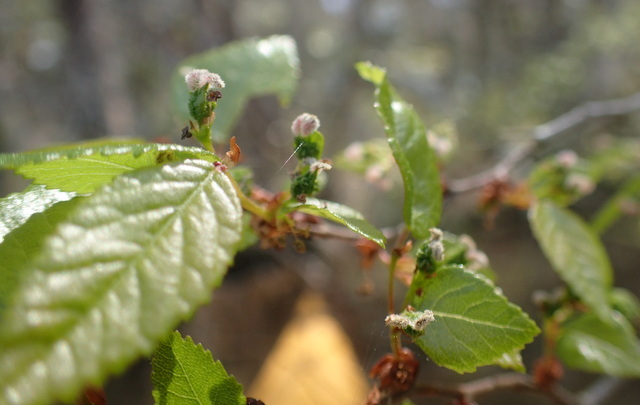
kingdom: Plantae
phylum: Tracheophyta
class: Magnoliopsida
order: Rosales
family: Ulmaceae
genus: Planera
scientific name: Planera aquatica
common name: Water-elm
